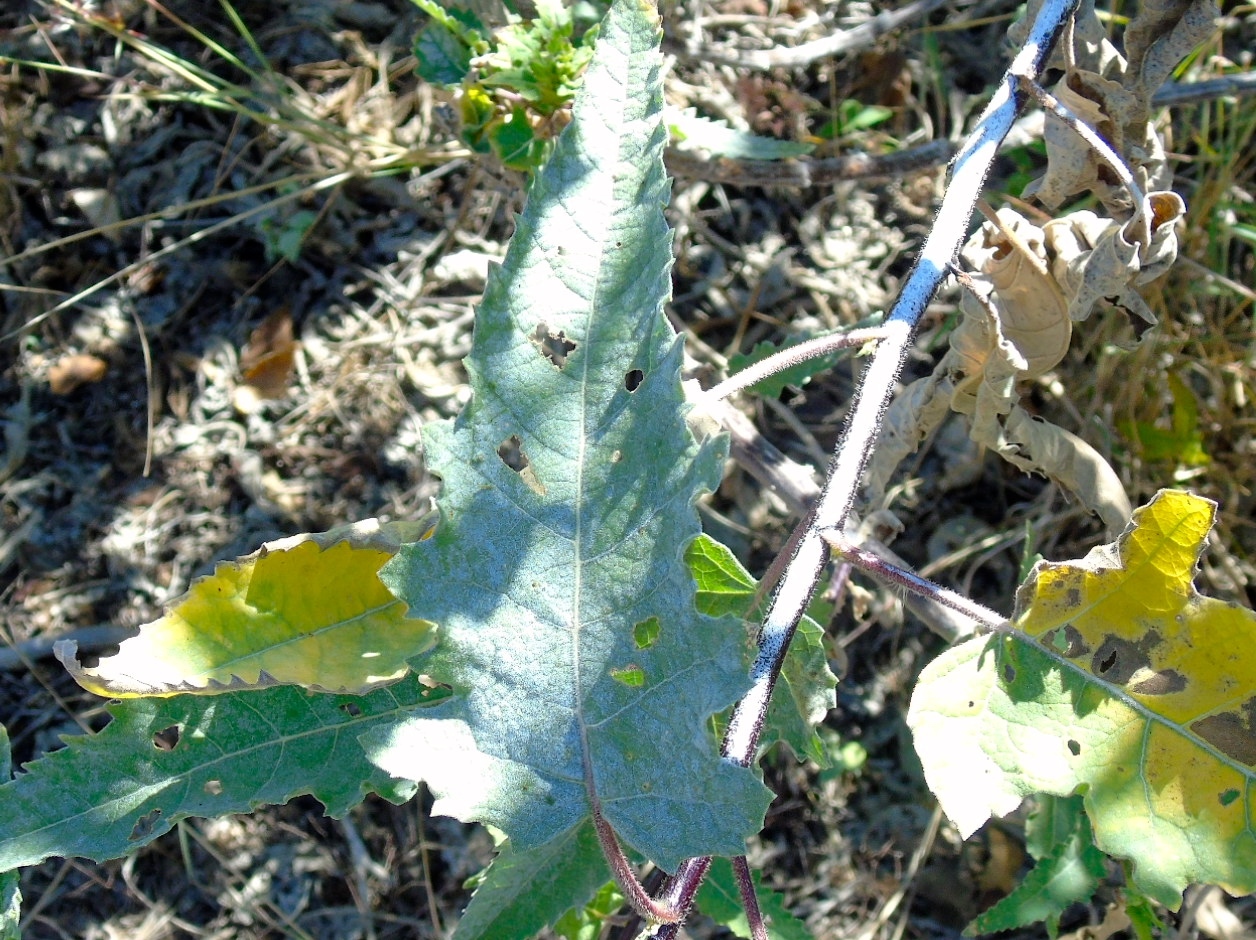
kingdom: Plantae
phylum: Tracheophyta
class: Magnoliopsida
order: Asterales
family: Asteraceae
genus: Ambrosia
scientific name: Ambrosia ambrosioides
